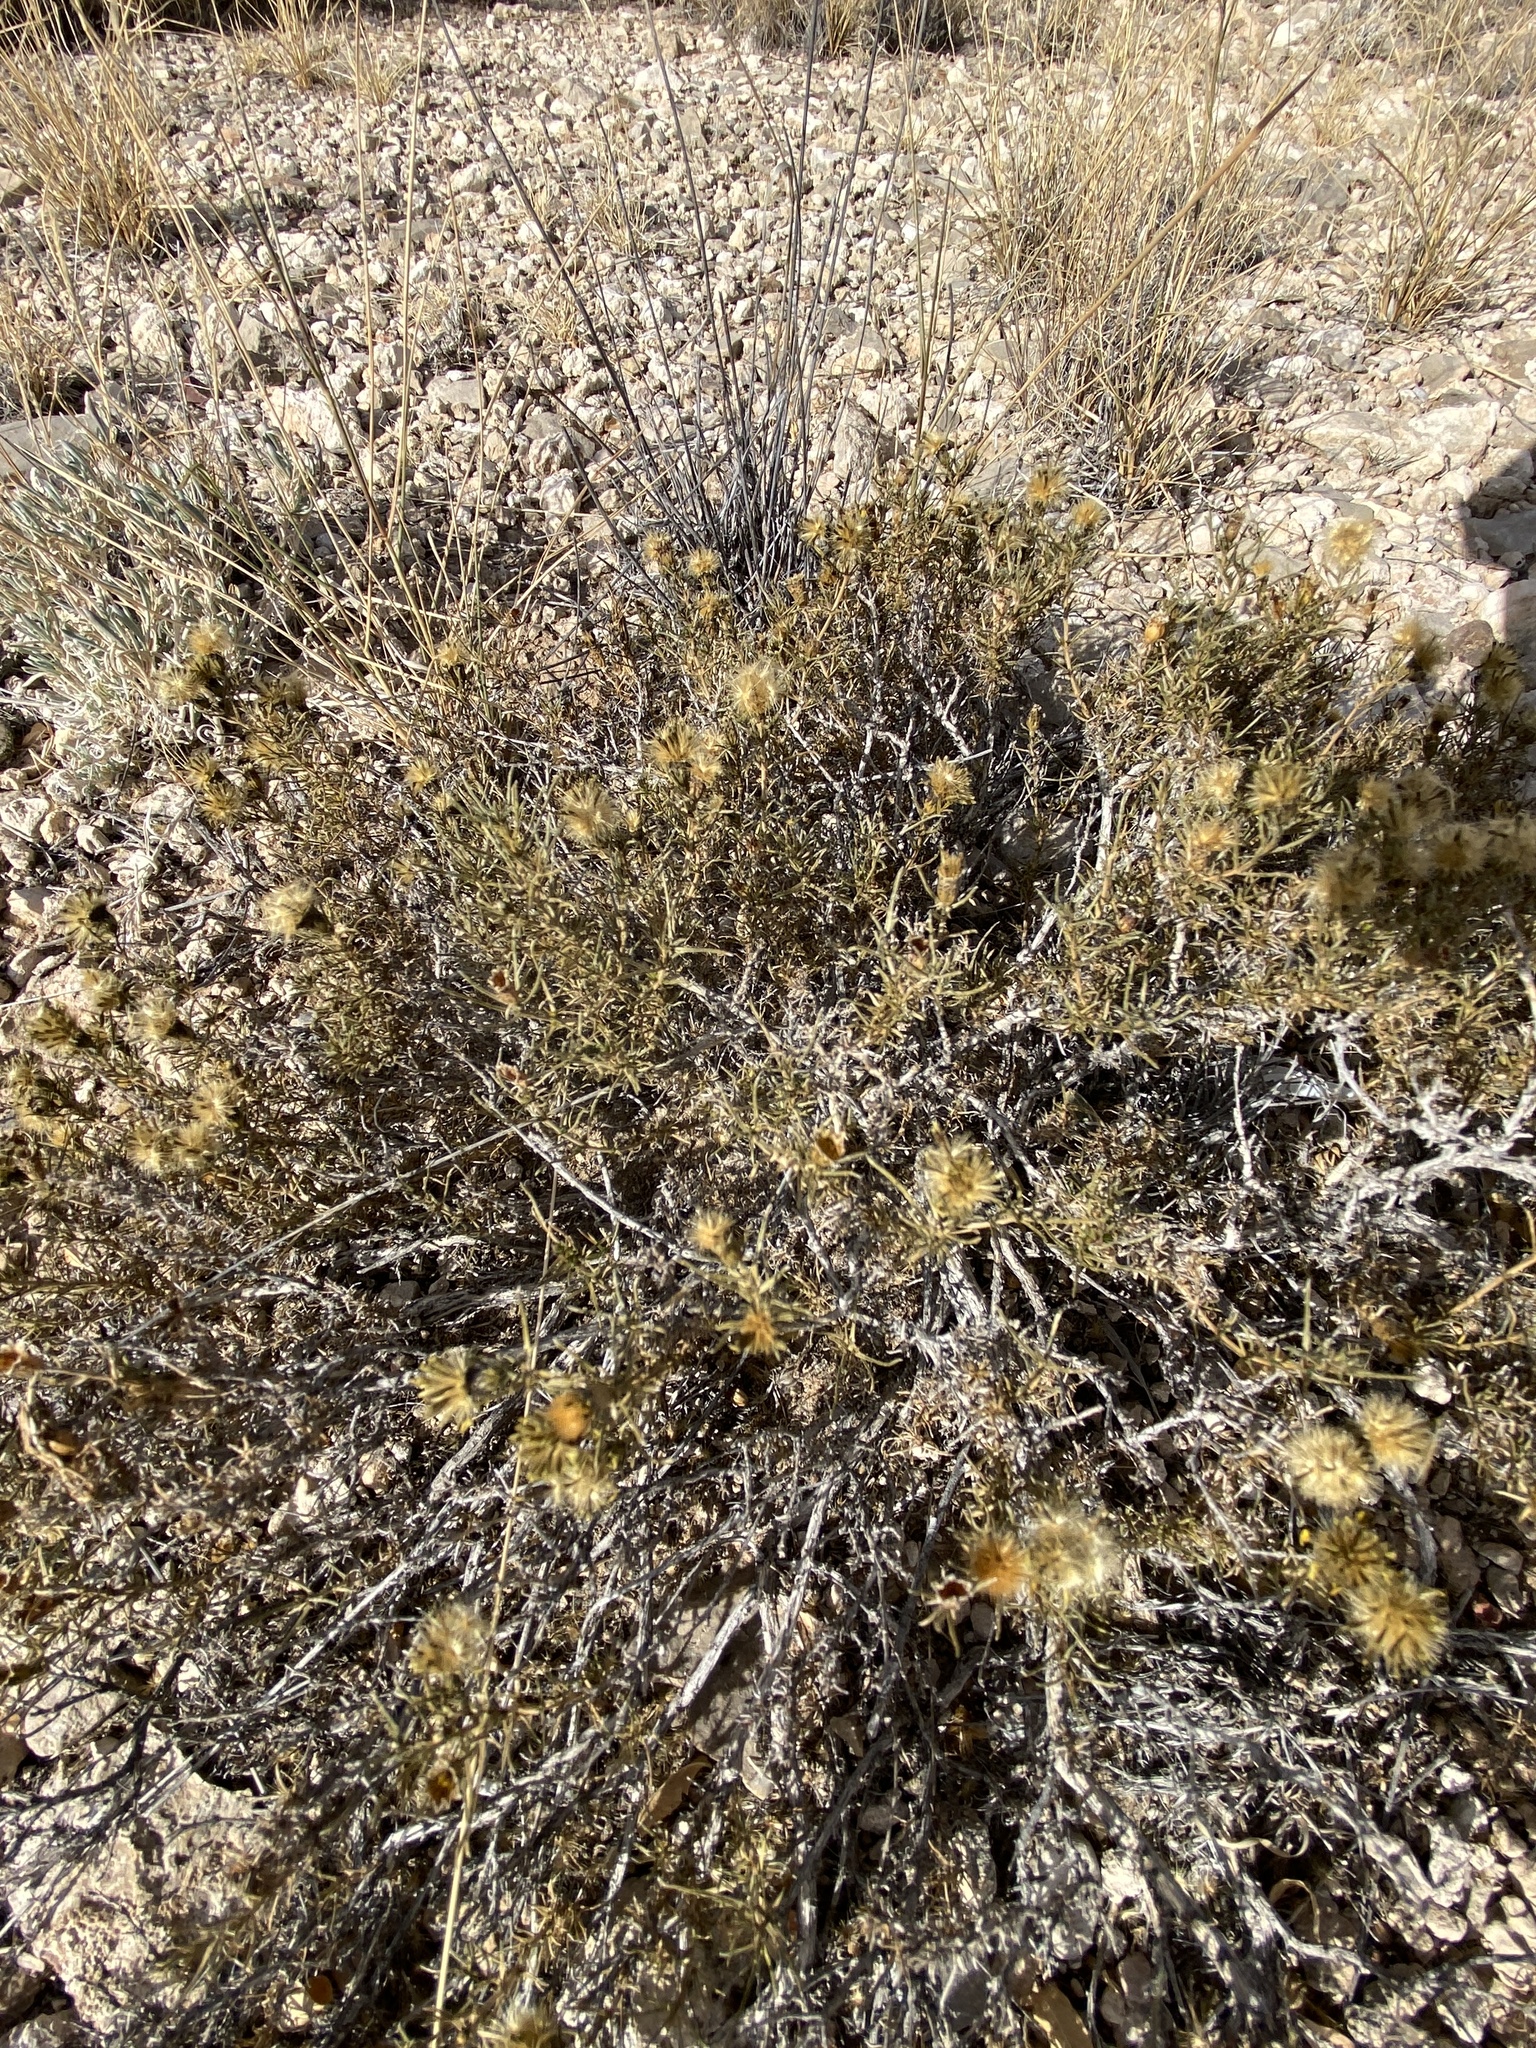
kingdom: Plantae
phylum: Tracheophyta
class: Magnoliopsida
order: Asterales
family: Asteraceae
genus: Thymophylla
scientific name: Thymophylla acerosa
